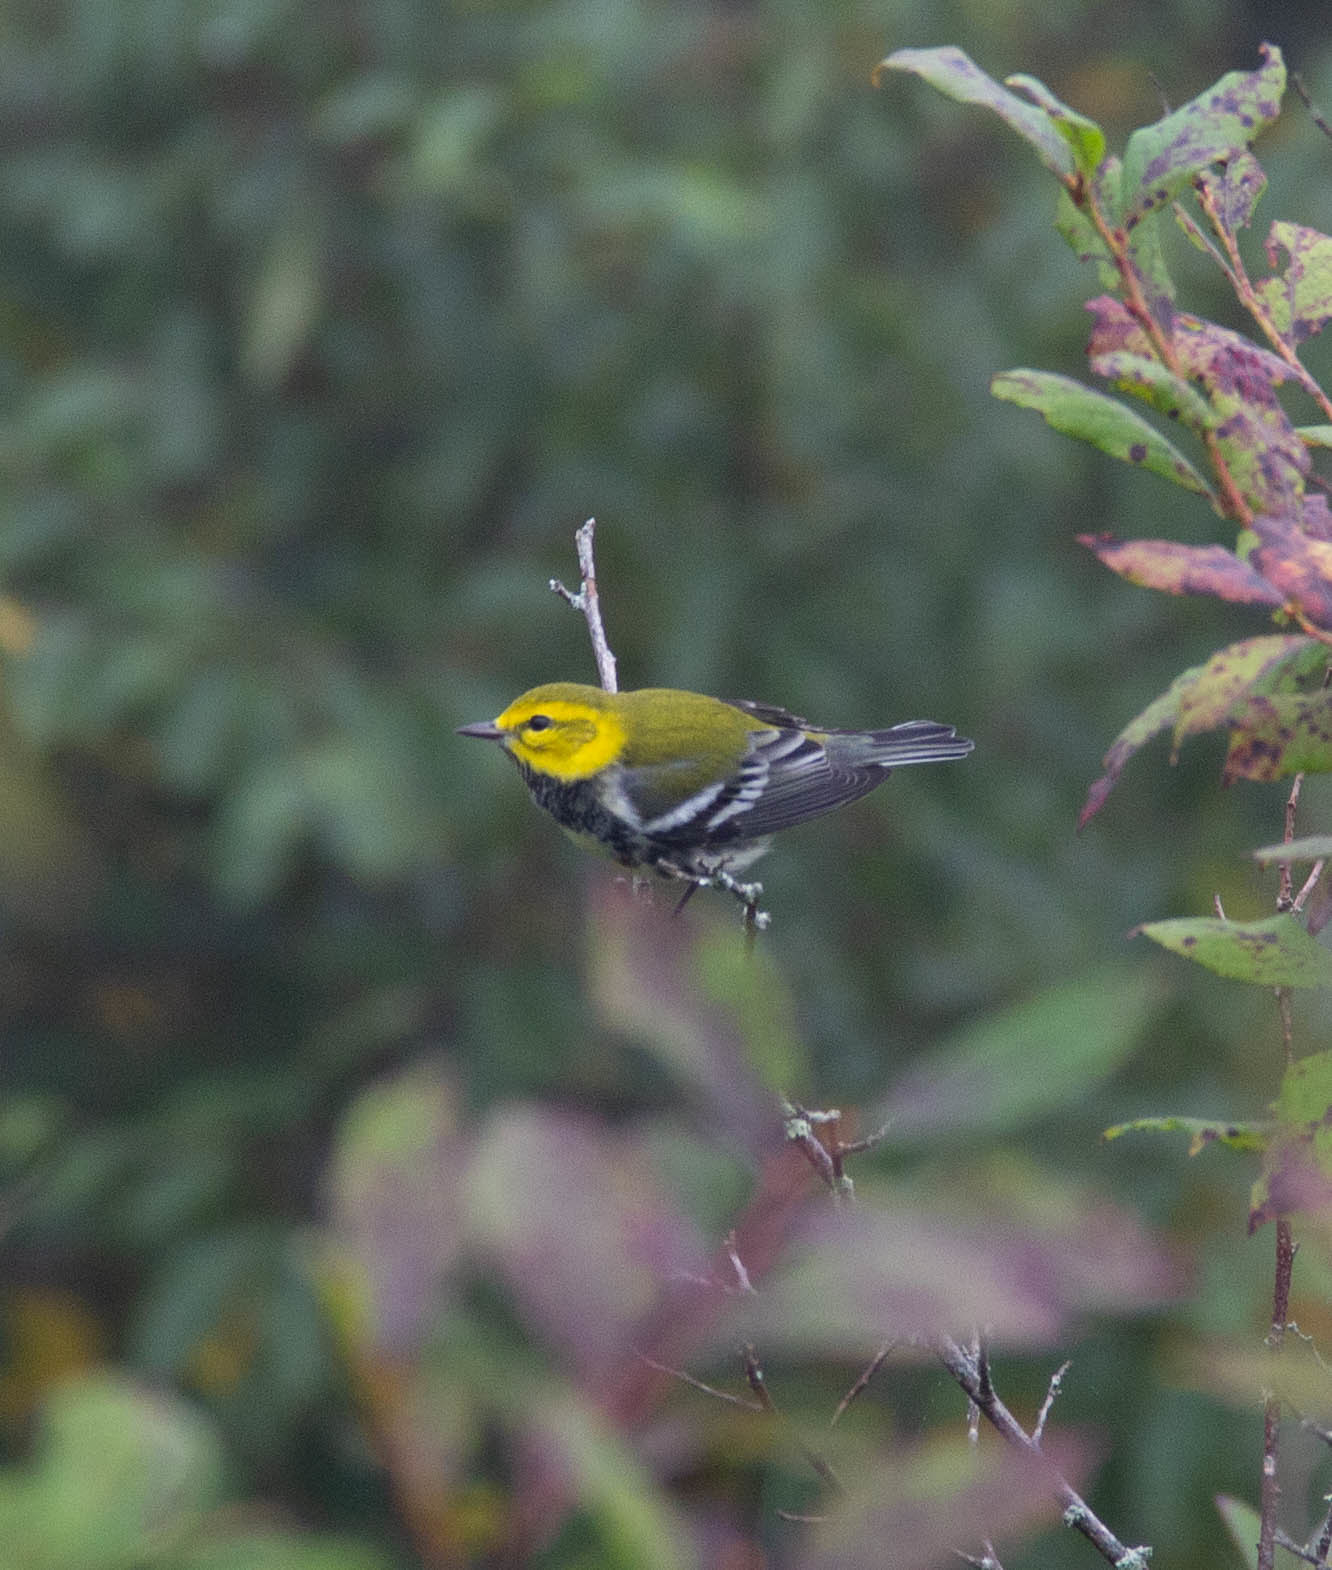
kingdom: Animalia
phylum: Chordata
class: Aves
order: Passeriformes
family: Parulidae
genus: Setophaga
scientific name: Setophaga virens
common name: Black-throated green warbler
